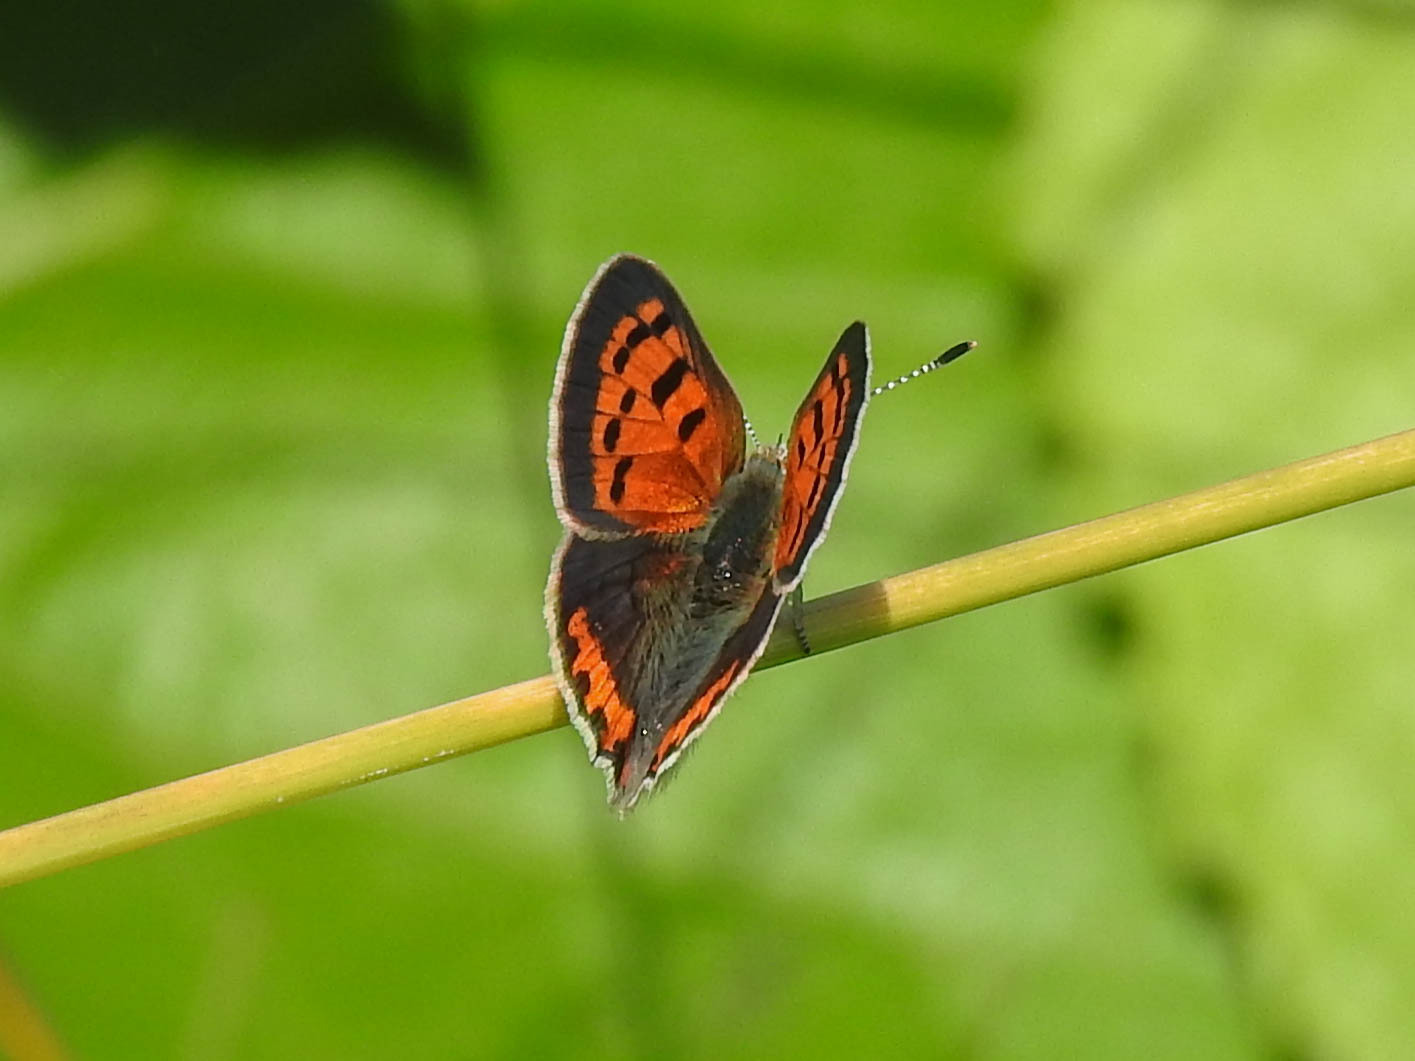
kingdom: Animalia
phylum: Arthropoda
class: Insecta
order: Lepidoptera
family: Lycaenidae
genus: Lycaena
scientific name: Lycaena hypophlaeas
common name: American copper
